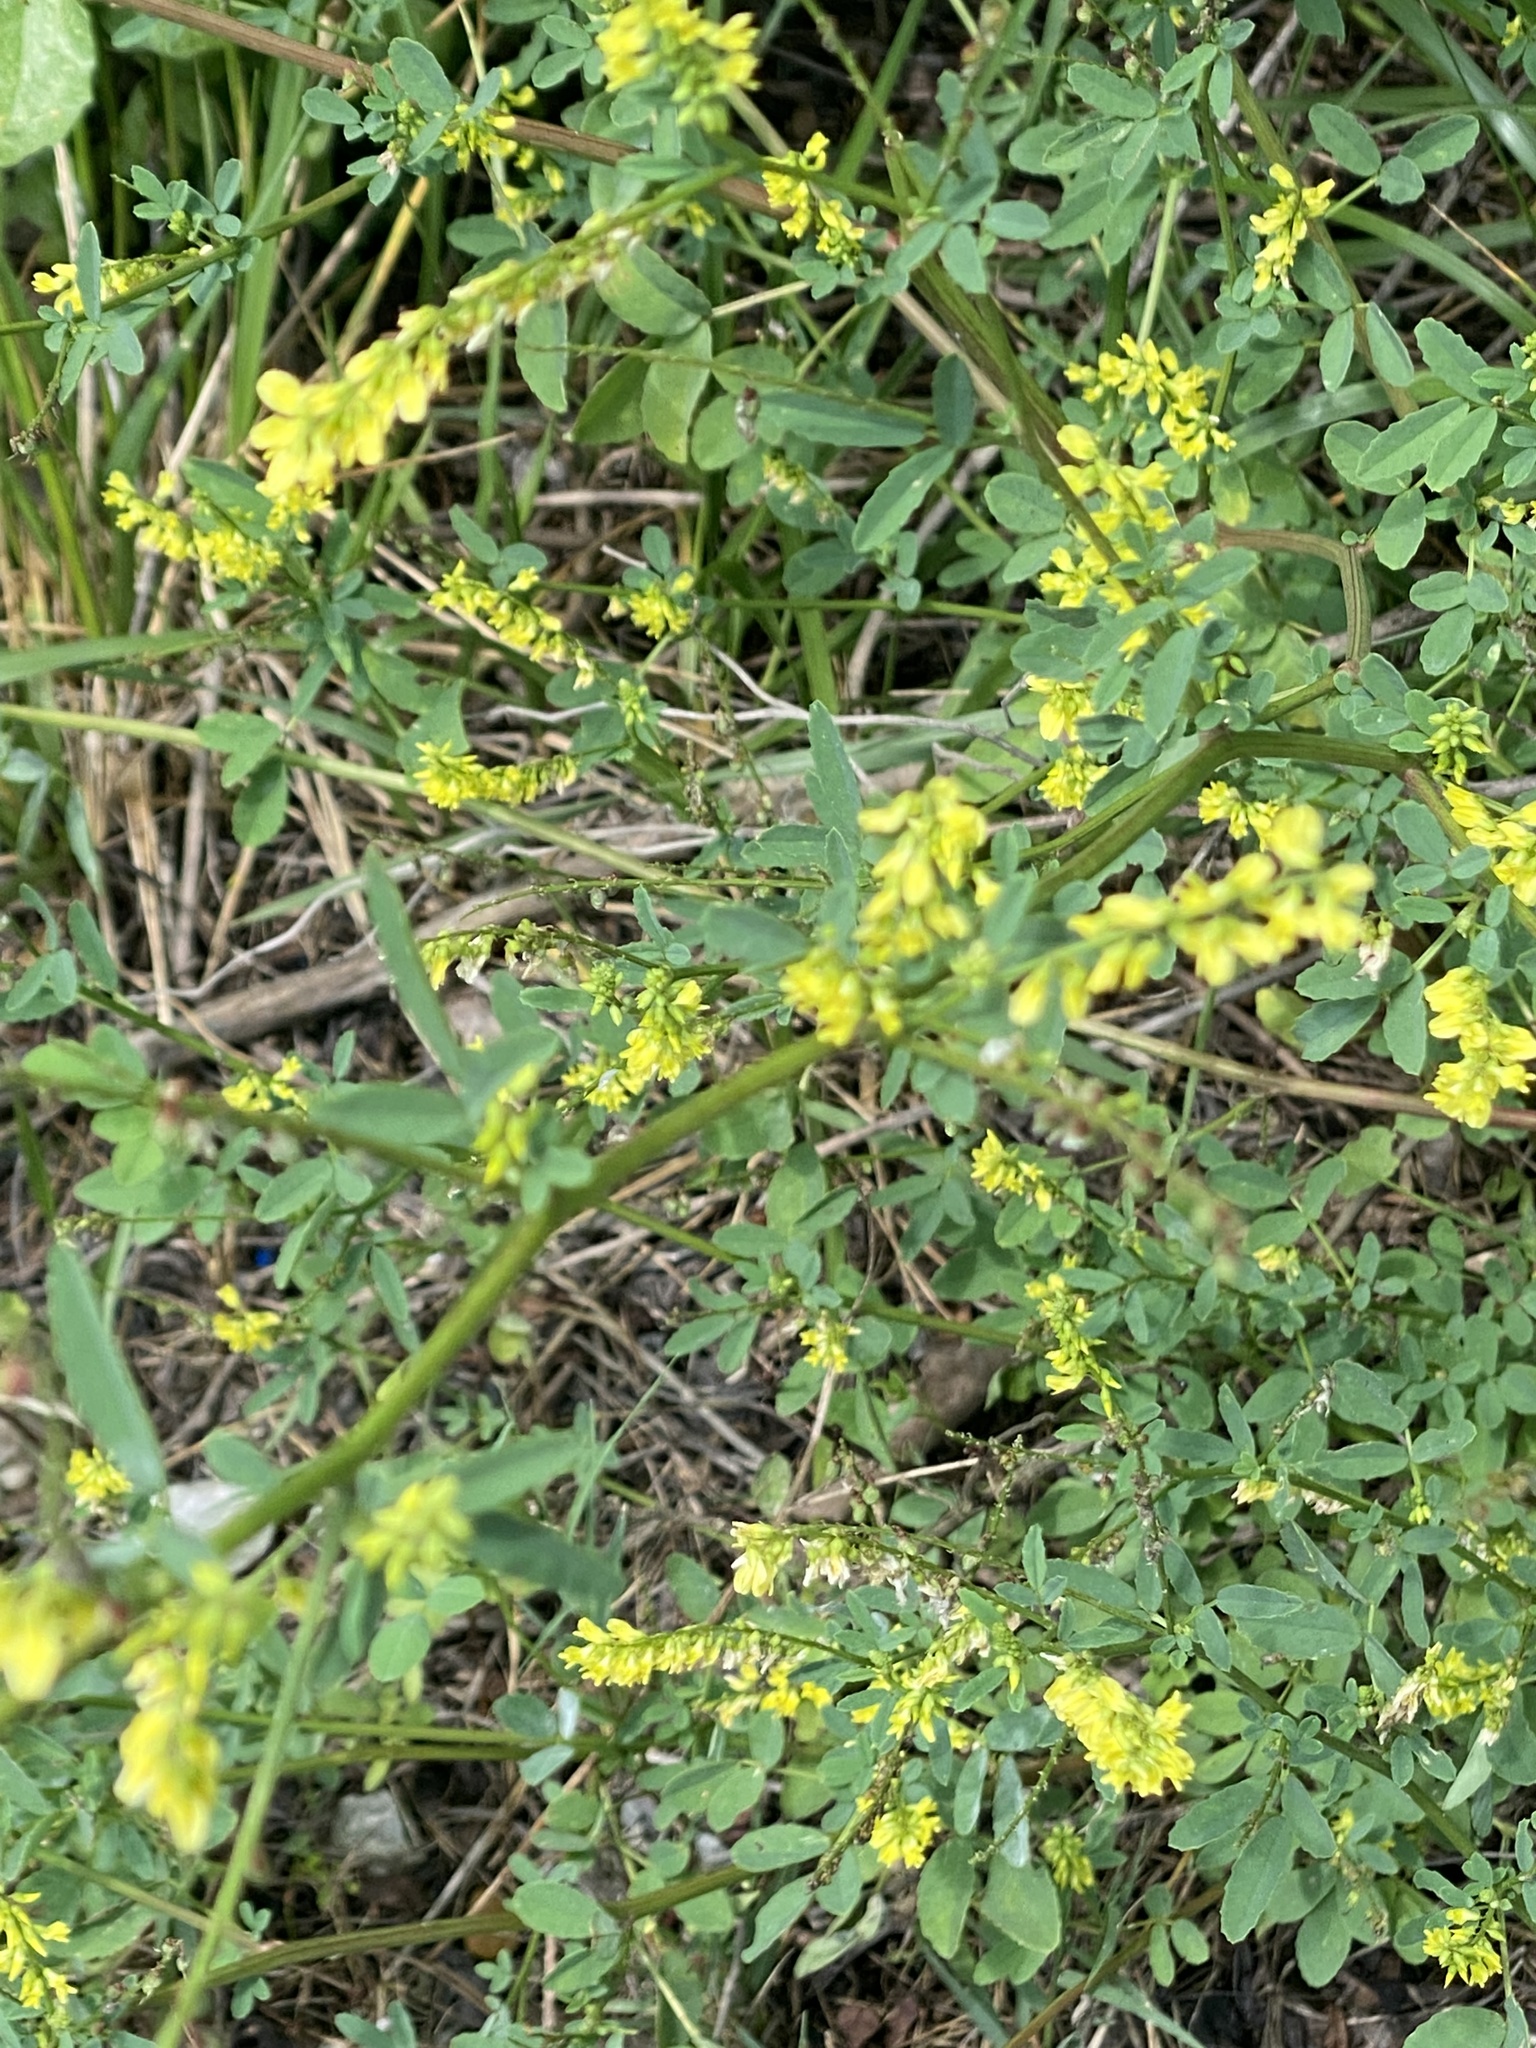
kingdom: Plantae
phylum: Tracheophyta
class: Magnoliopsida
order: Fabales
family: Fabaceae
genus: Melilotus
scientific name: Melilotus officinalis
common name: Sweetclover
